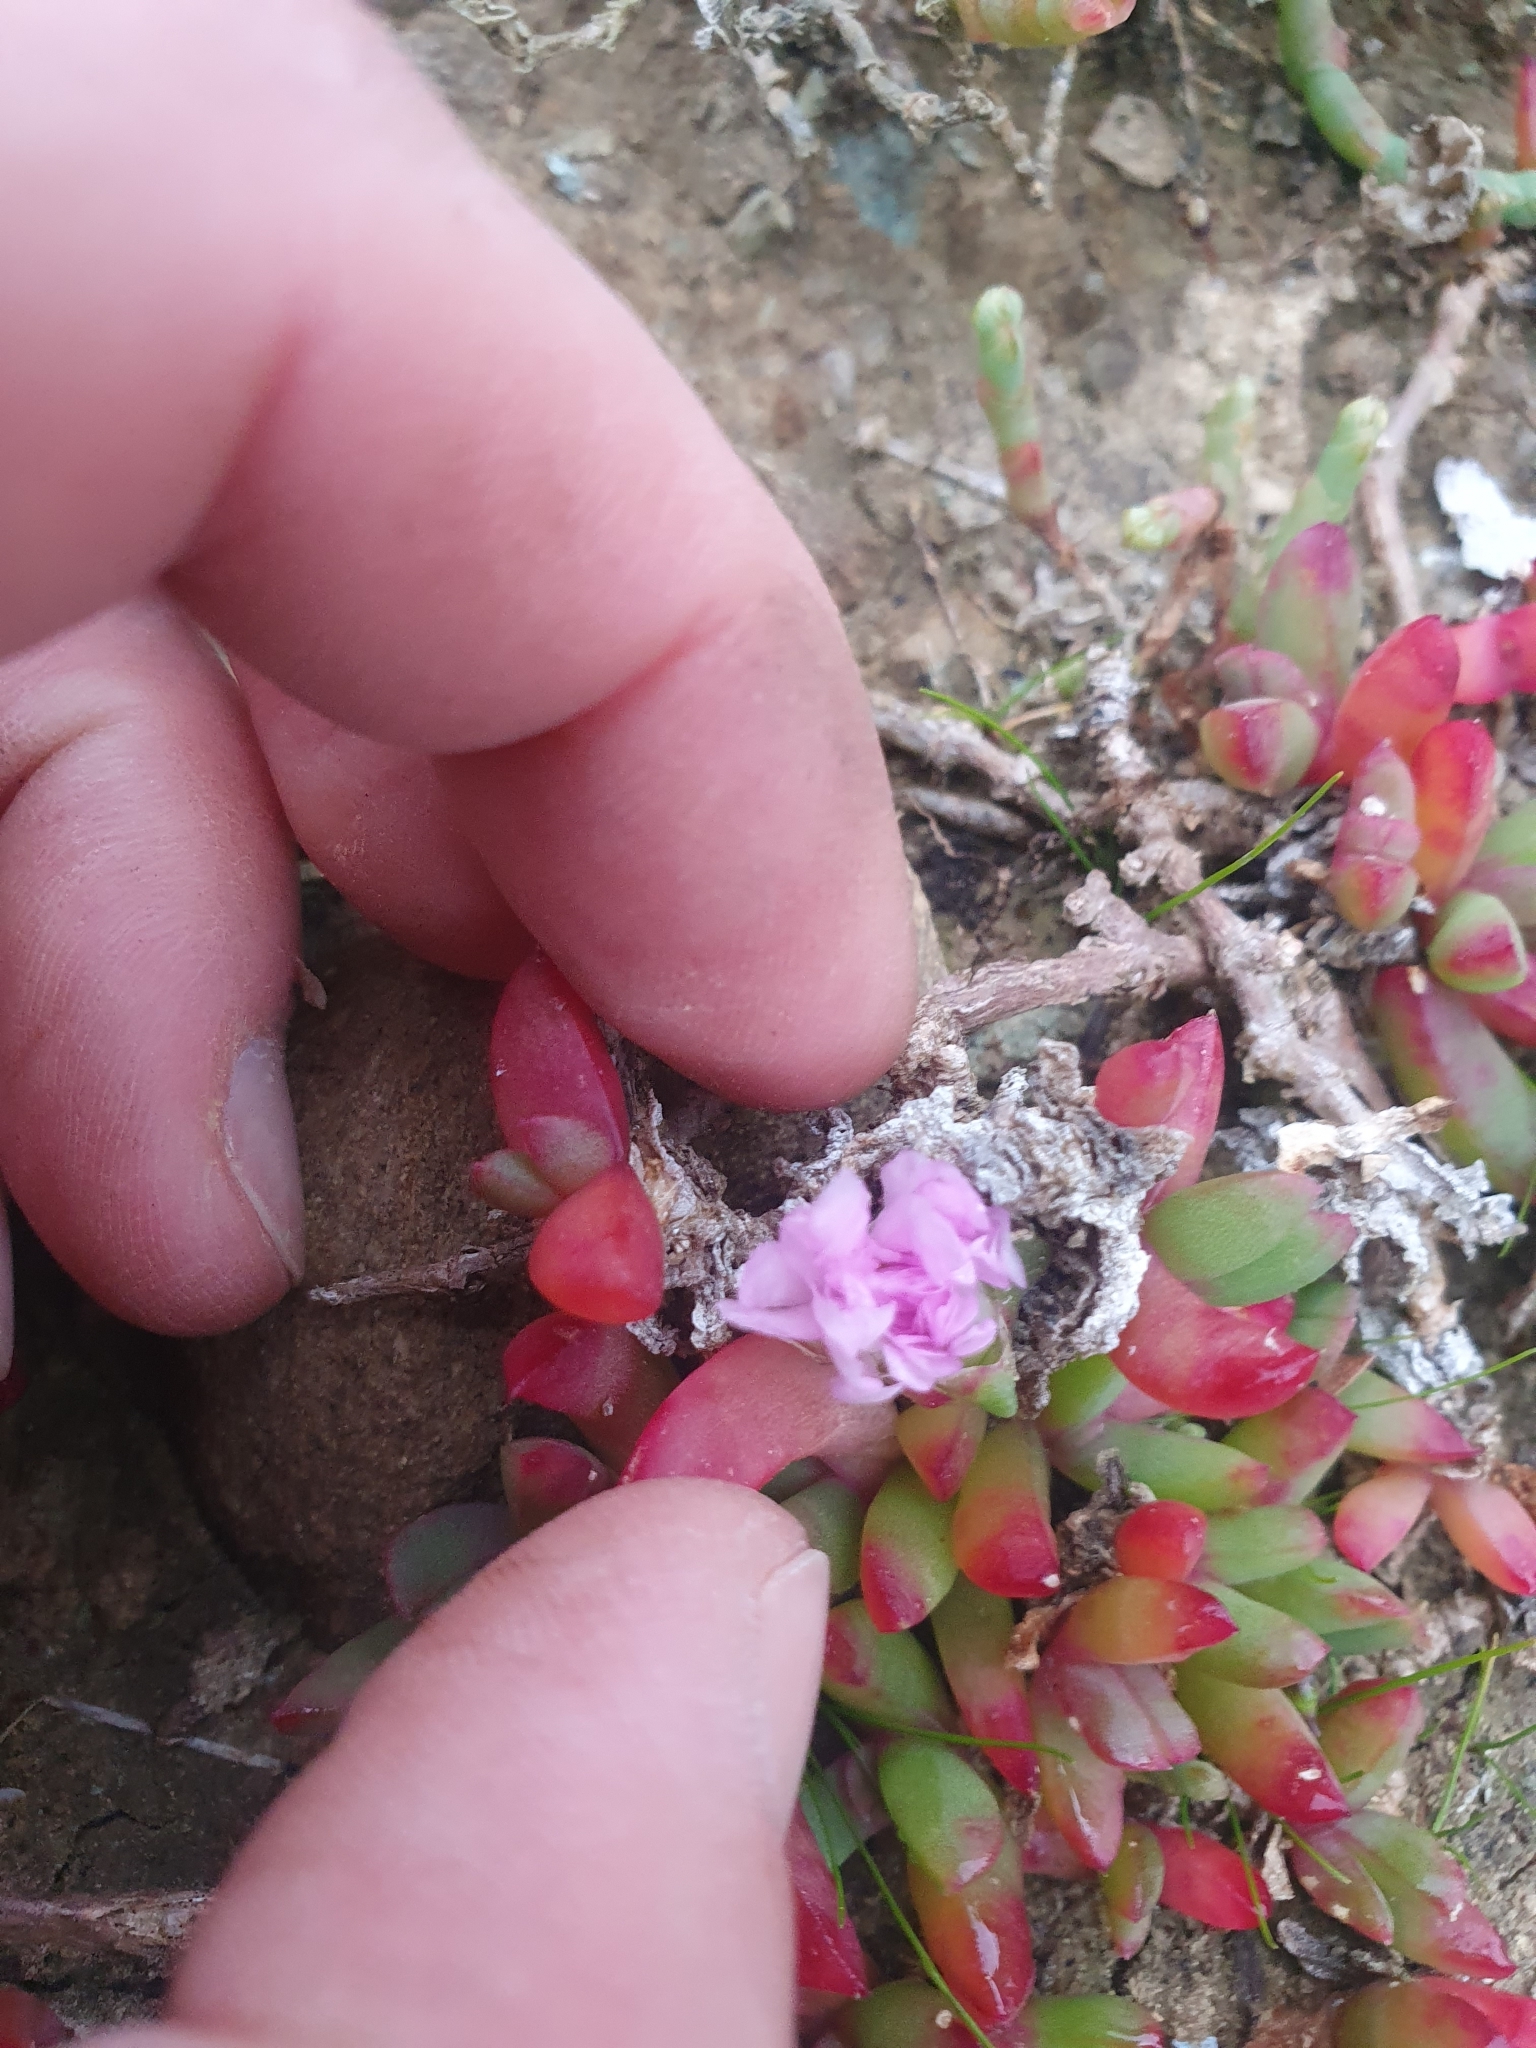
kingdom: Plantae
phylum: Tracheophyta
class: Magnoliopsida
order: Caryophyllales
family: Aizoaceae
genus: Disphyma
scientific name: Disphyma australe
